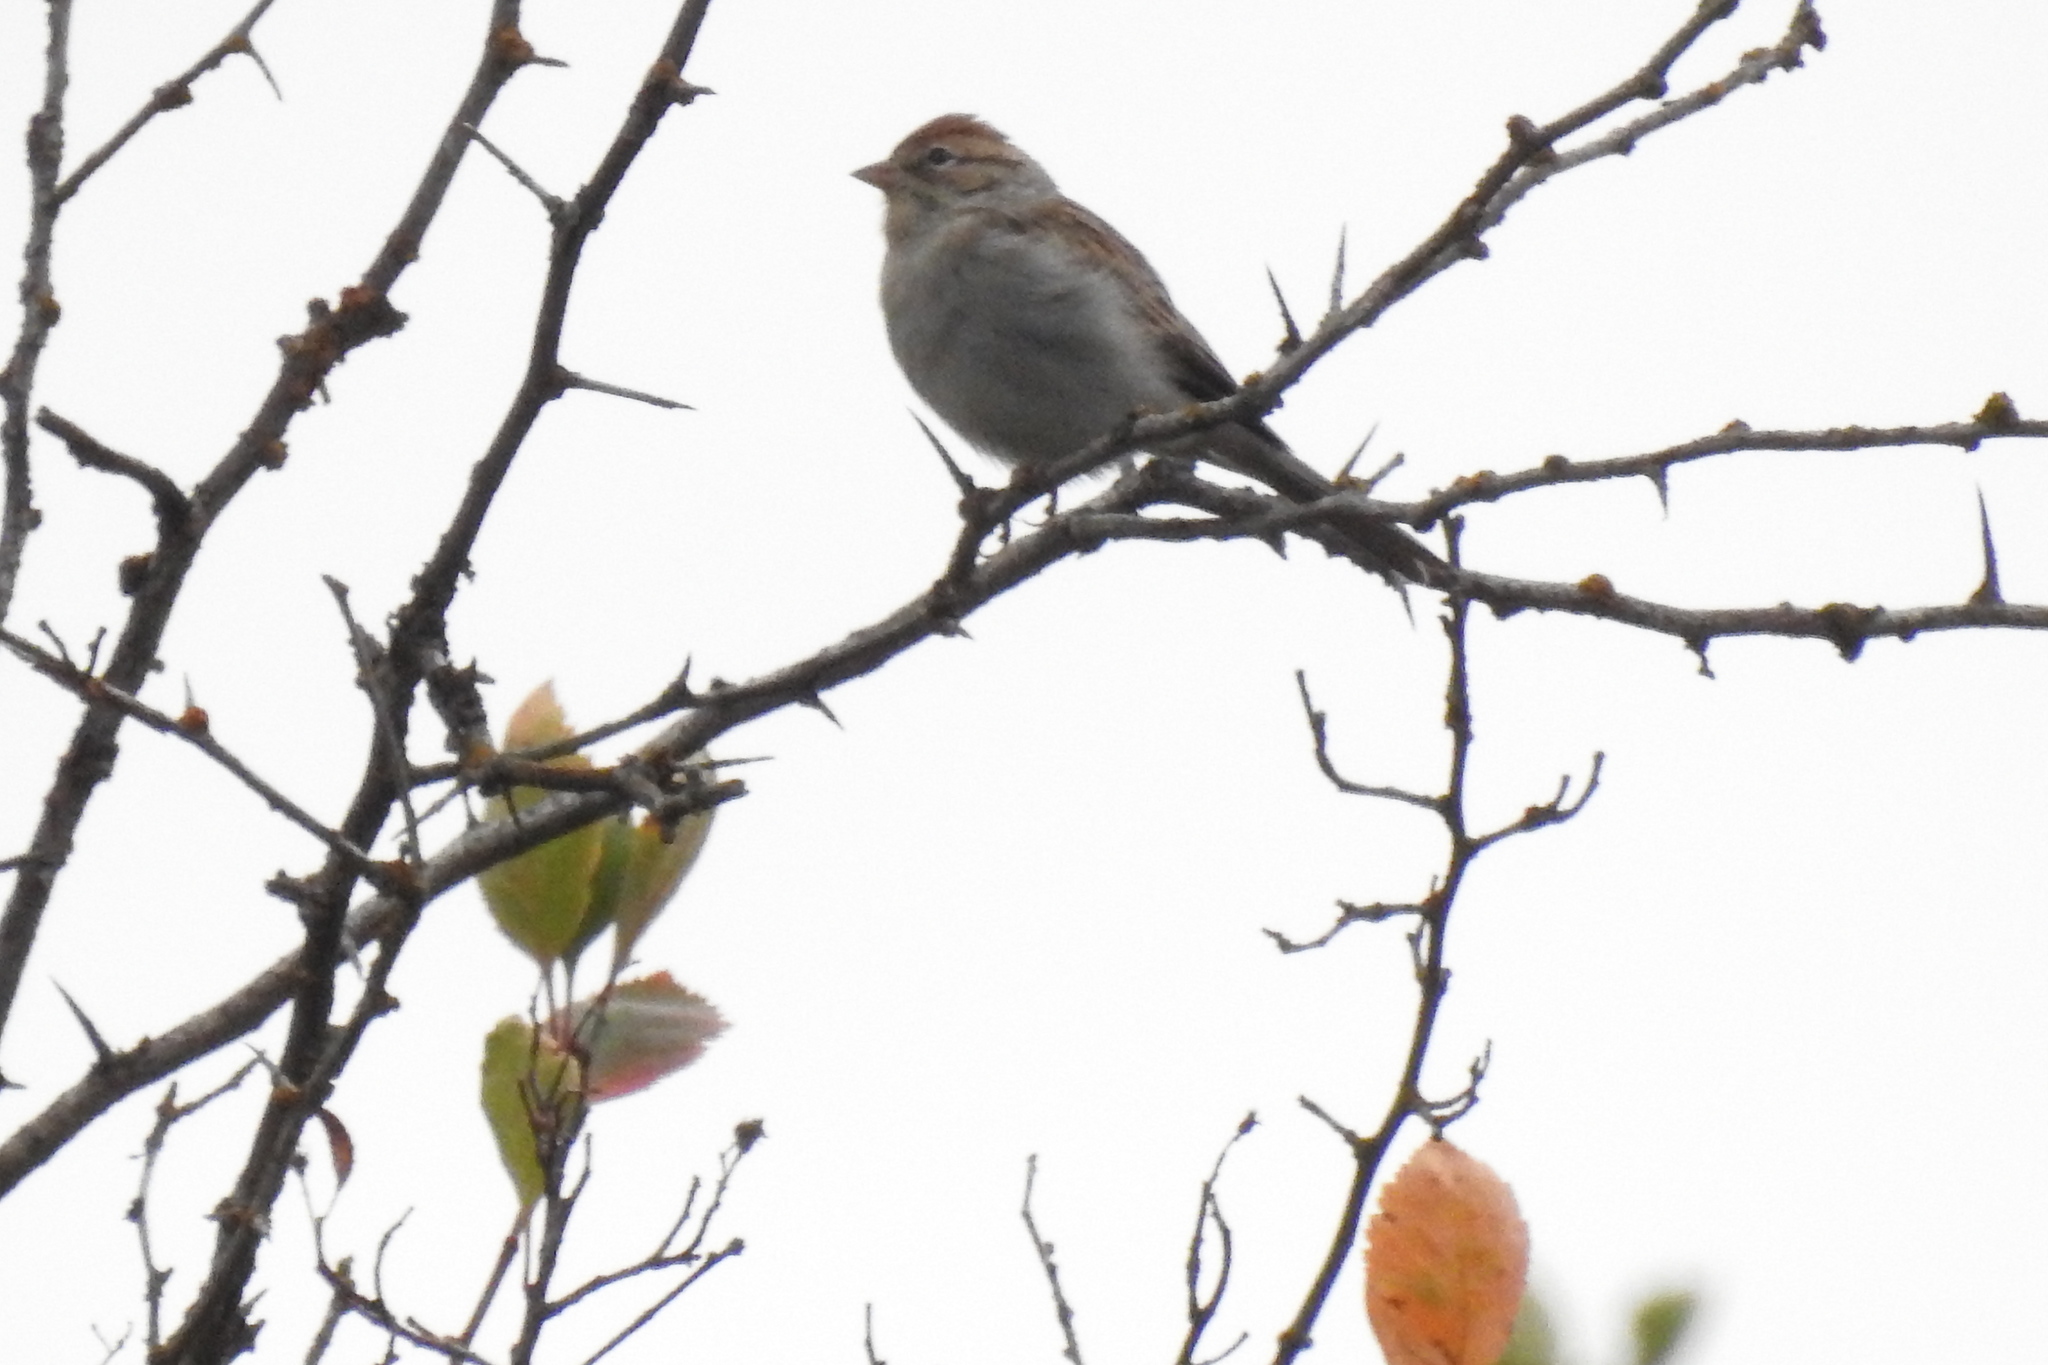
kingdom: Animalia
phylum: Chordata
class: Aves
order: Passeriformes
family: Passerellidae
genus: Spizella
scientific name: Spizella passerina
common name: Chipping sparrow
